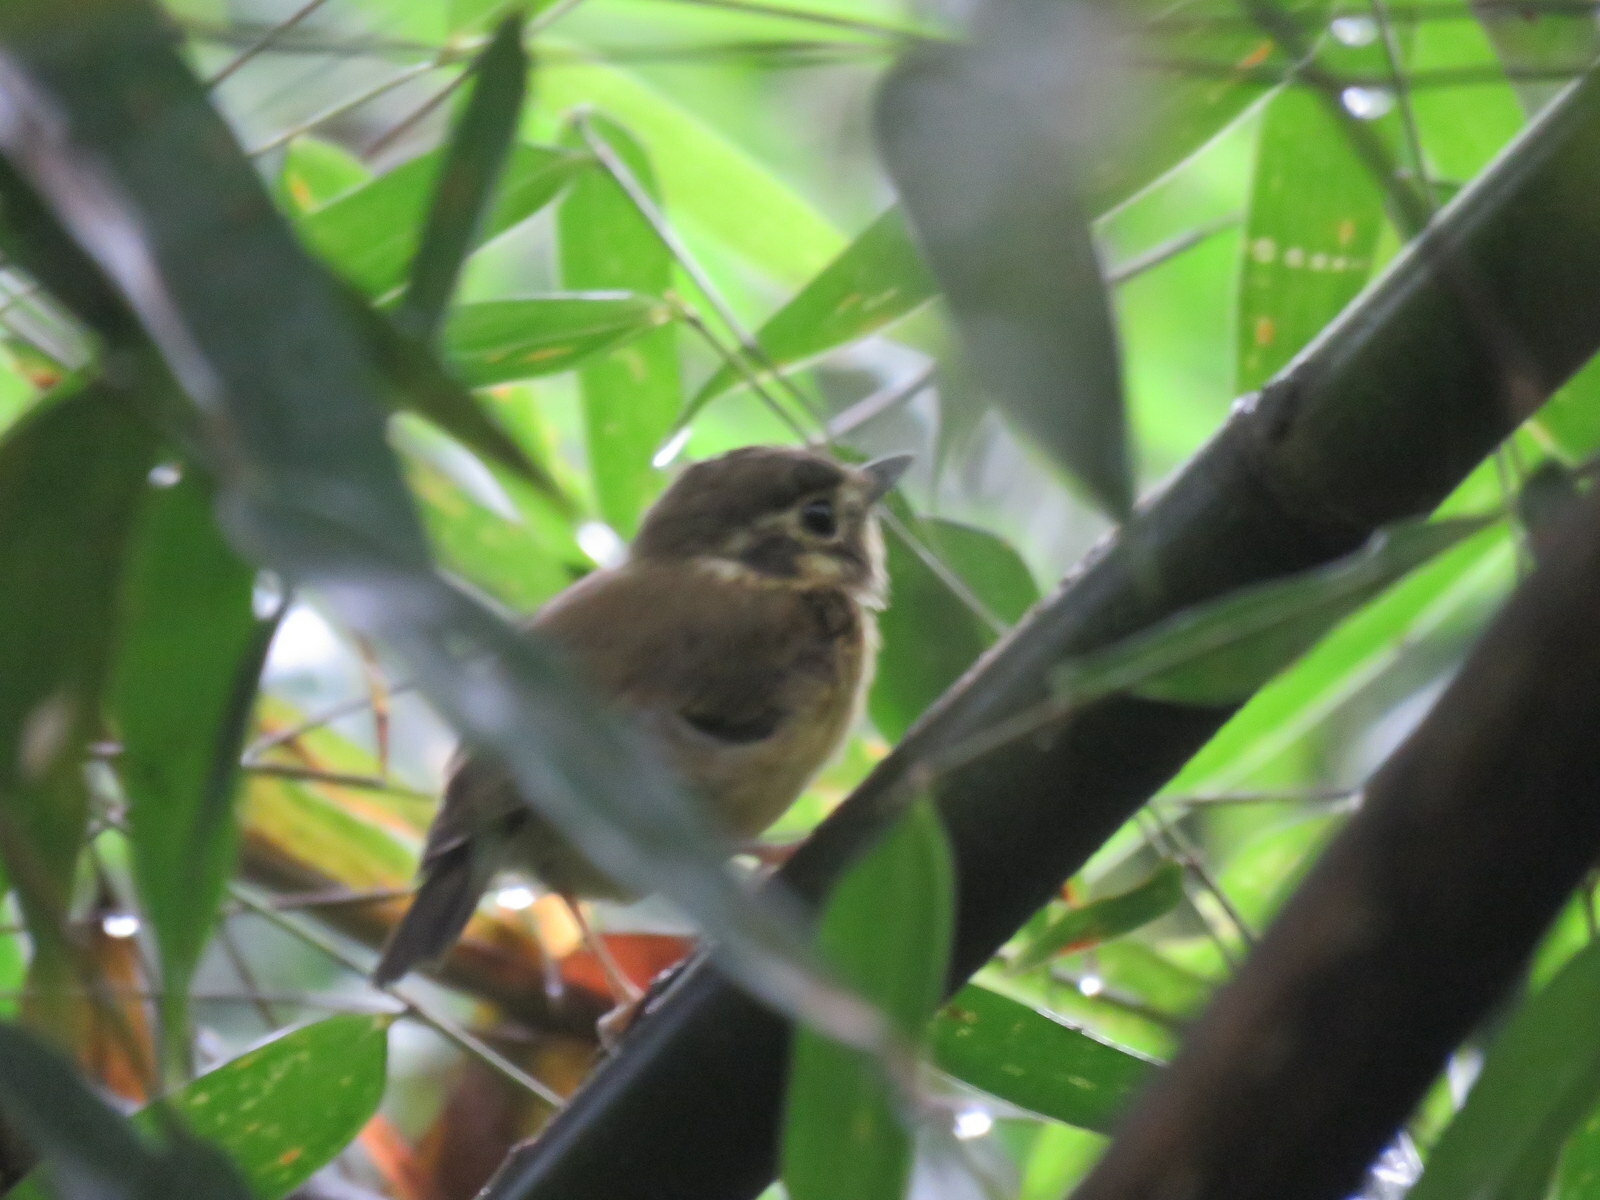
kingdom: Animalia
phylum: Chordata
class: Aves
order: Passeriformes
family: Tyrannidae
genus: Platyrinchus
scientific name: Platyrinchus mystaceus
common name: White-throated spadebill
